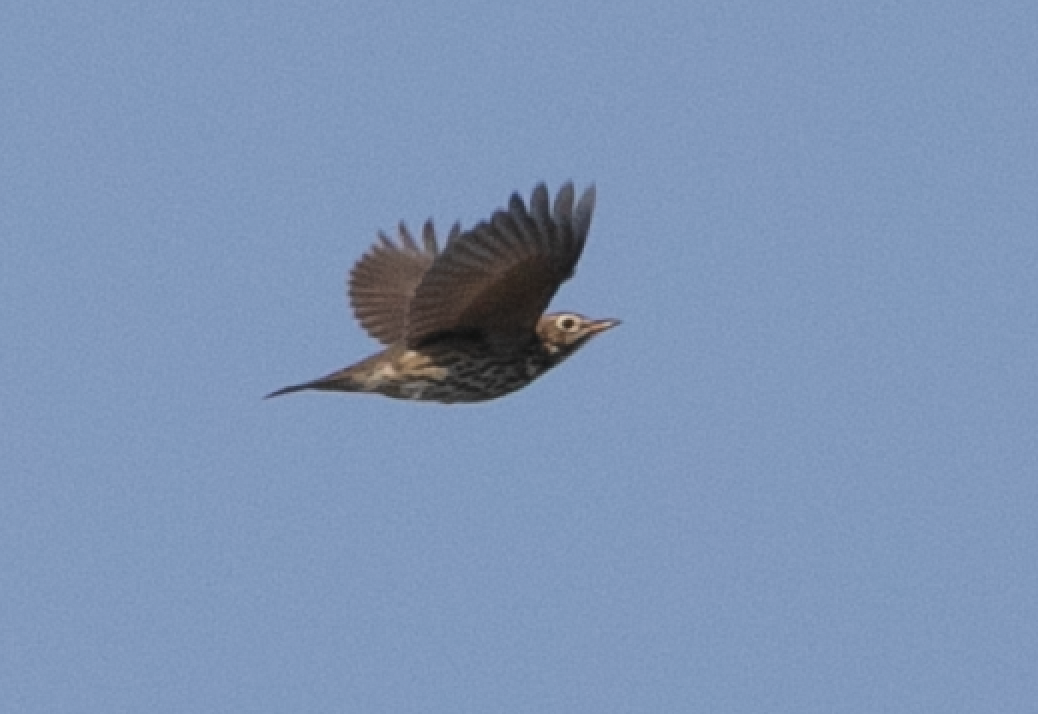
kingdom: Animalia
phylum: Chordata
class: Aves
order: Passeriformes
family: Turdidae
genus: Turdus
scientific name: Turdus philomelos
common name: Song thrush
